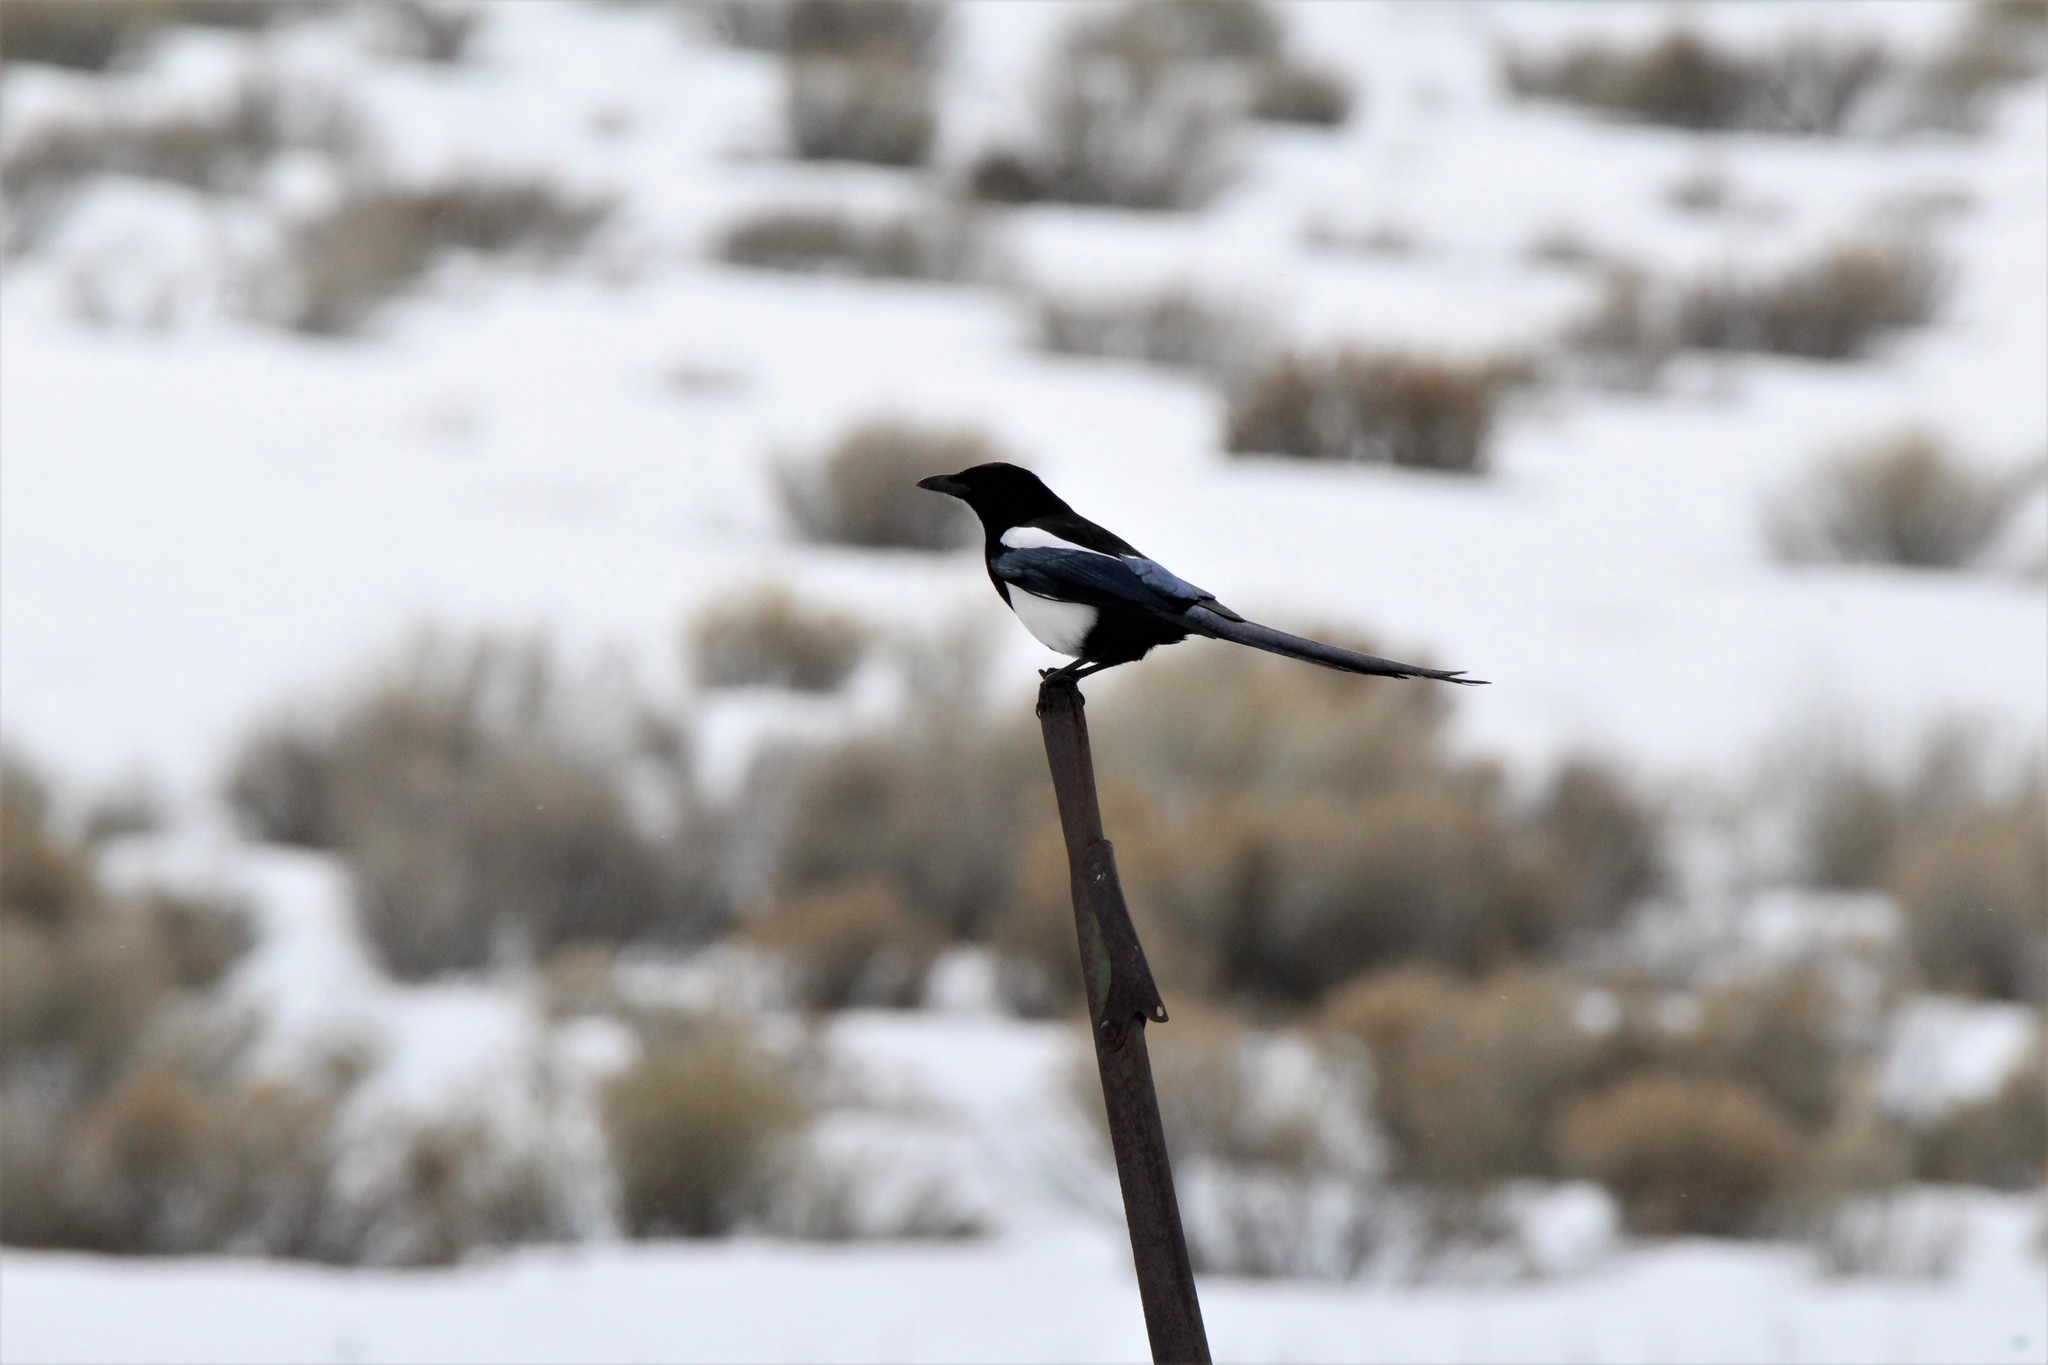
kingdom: Animalia
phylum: Chordata
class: Aves
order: Passeriformes
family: Corvidae
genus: Pica
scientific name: Pica hudsonia
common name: Black-billed magpie
